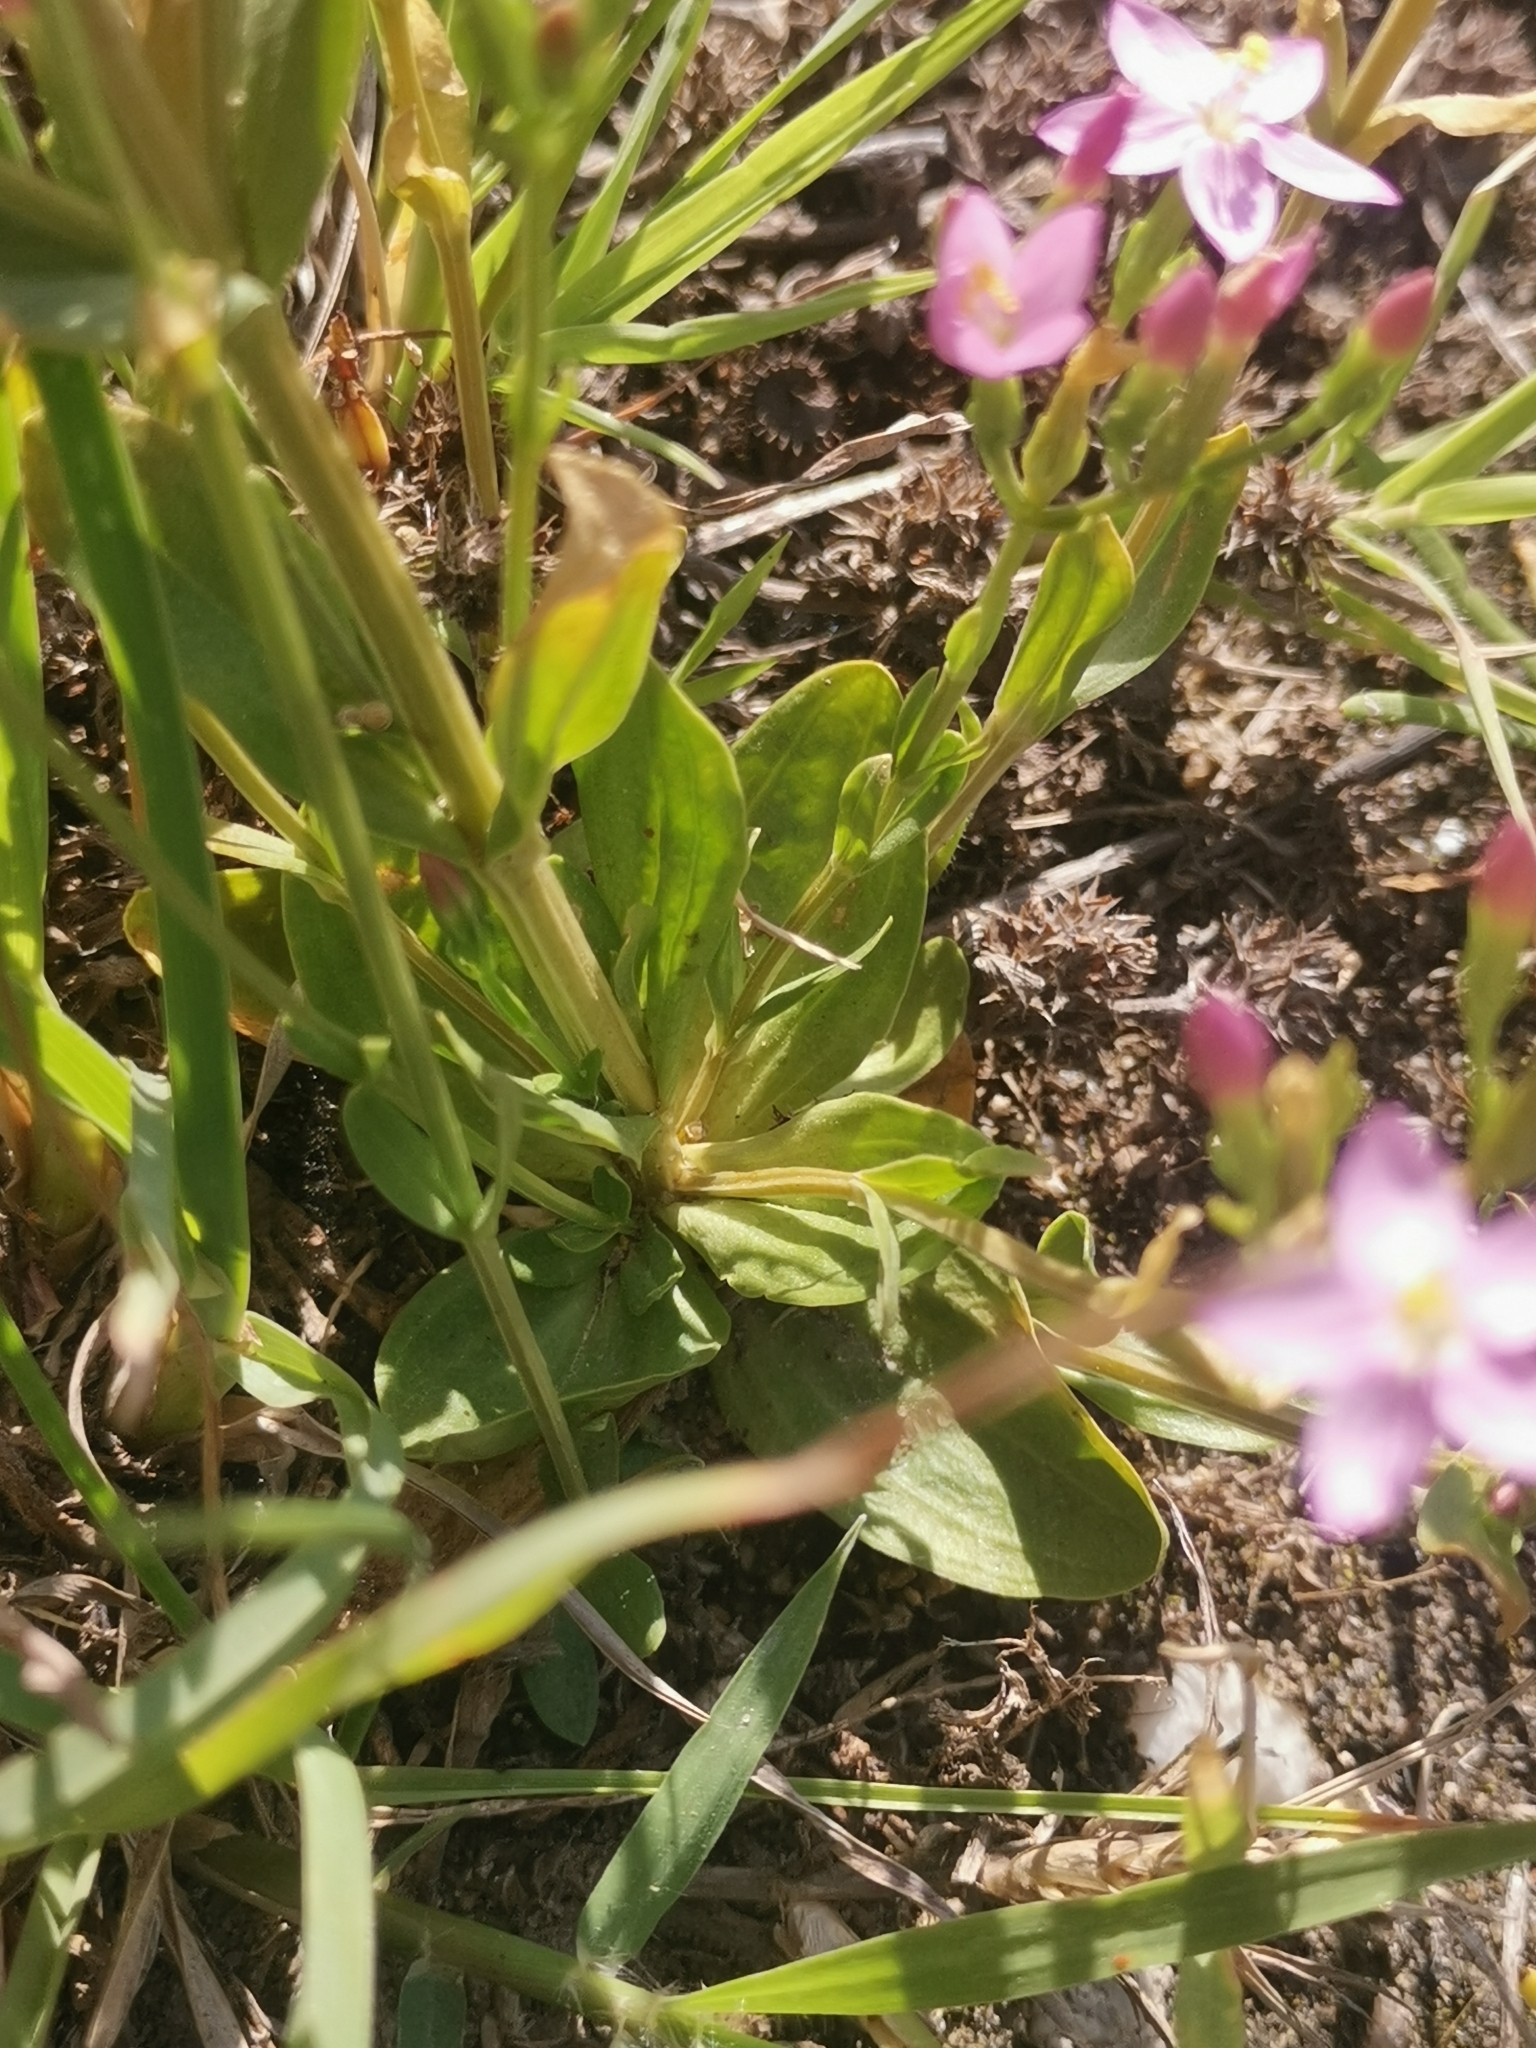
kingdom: Plantae
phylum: Tracheophyta
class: Magnoliopsida
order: Gentianales
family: Gentianaceae
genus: Centaurium
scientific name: Centaurium erythraea
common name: Common centaury
